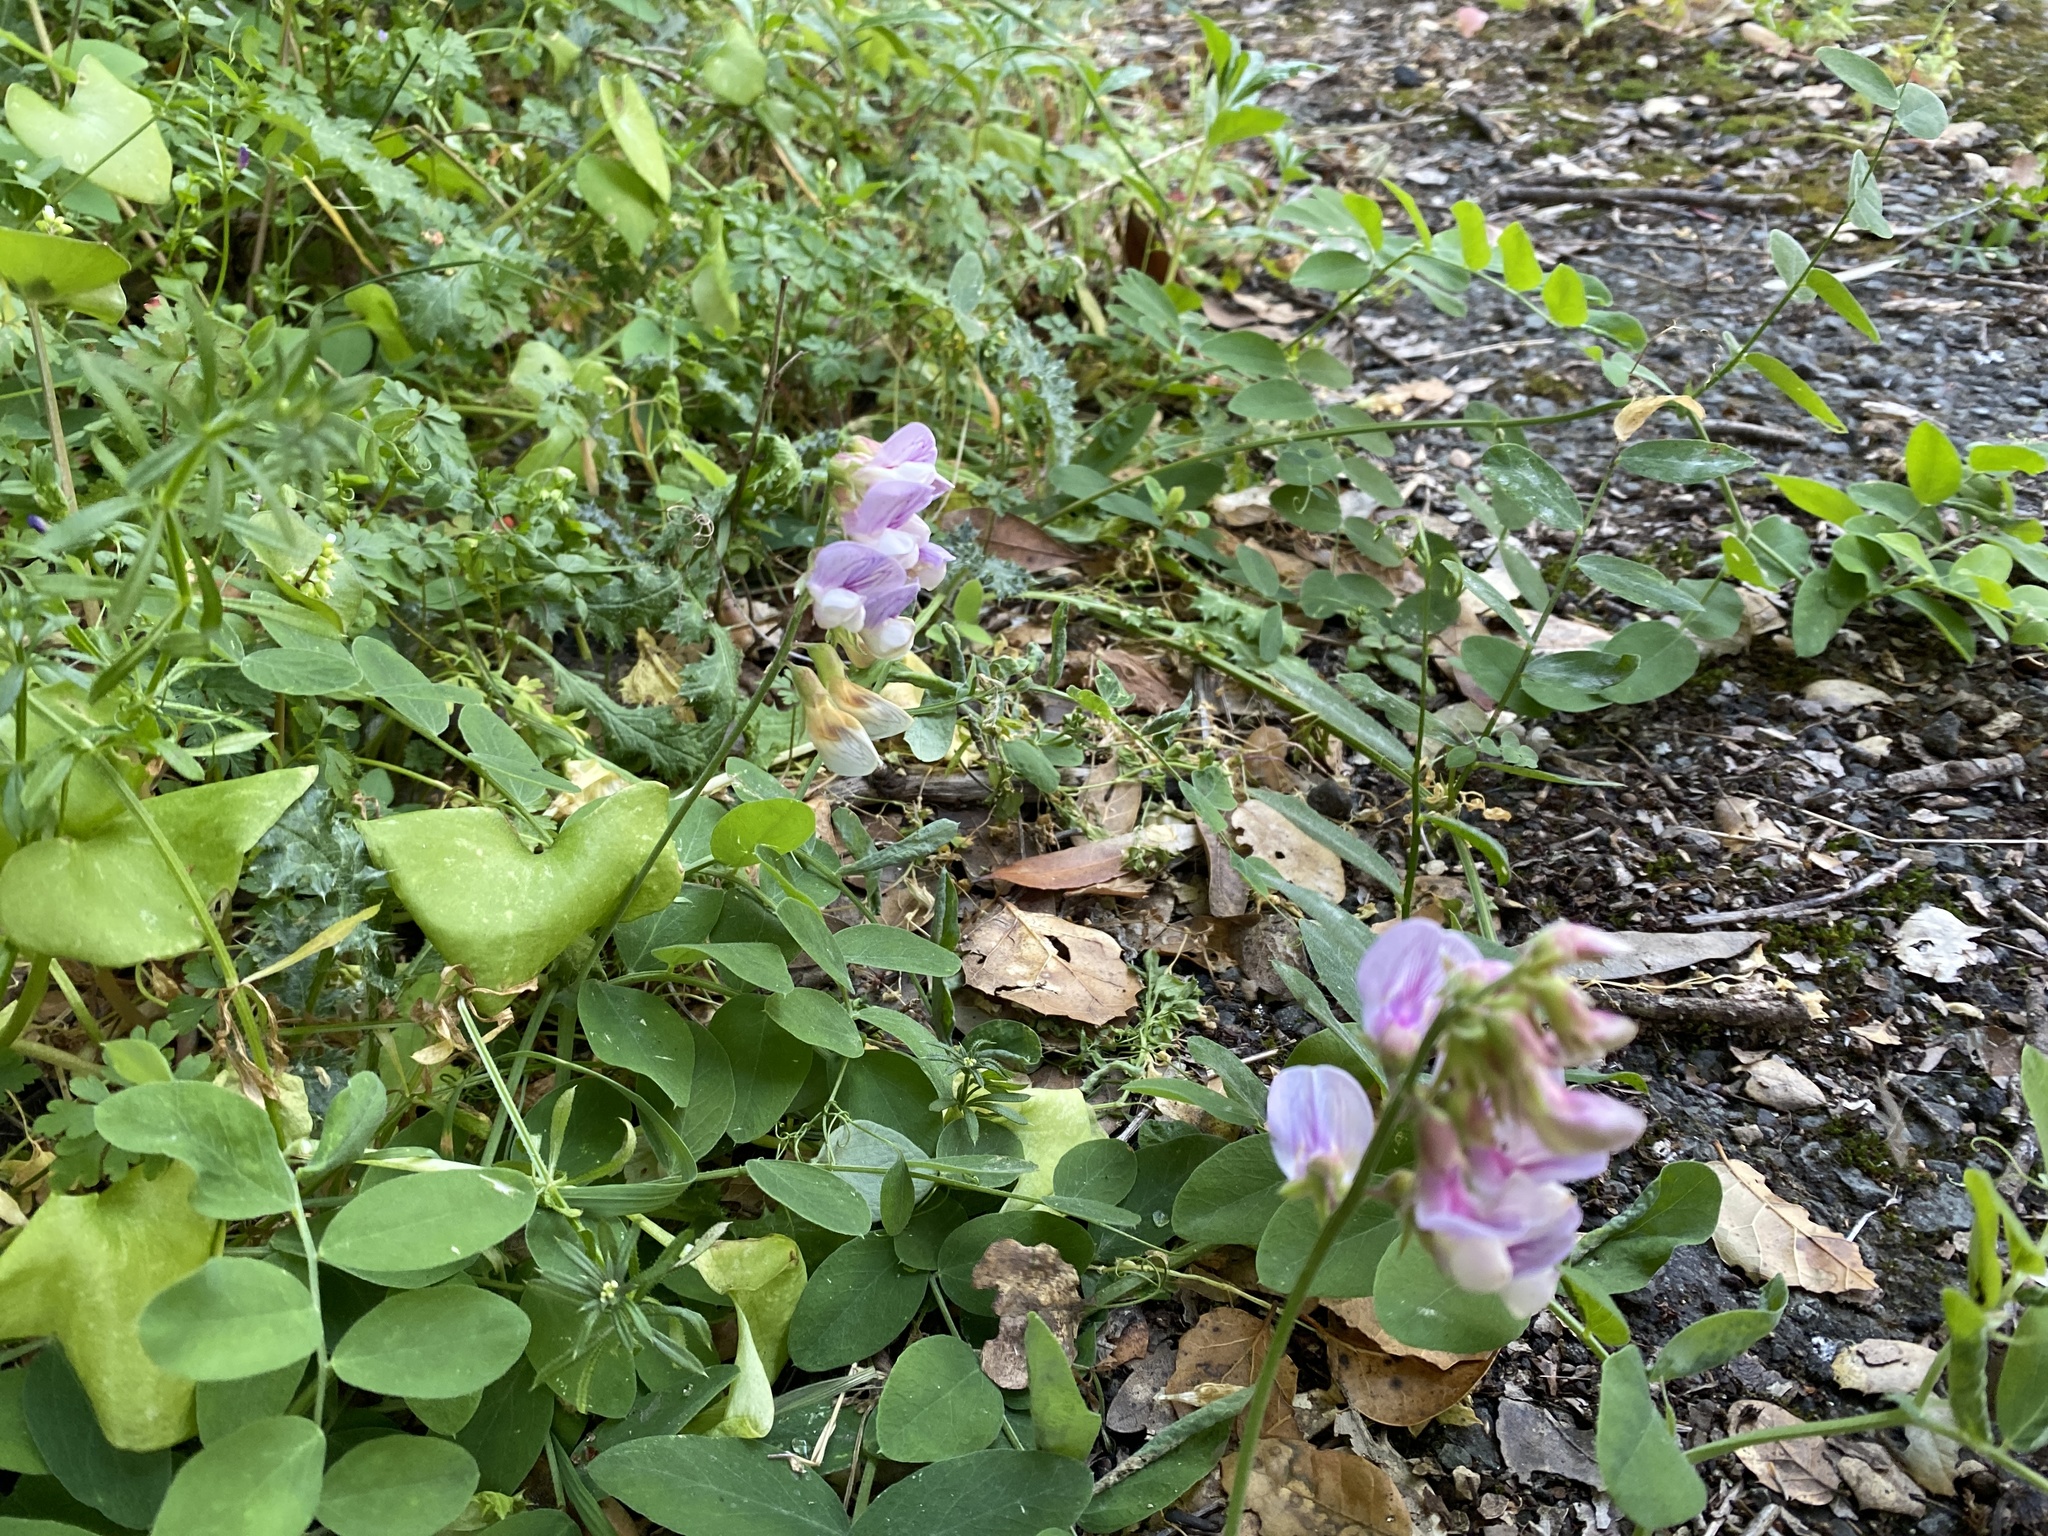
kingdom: Plantae
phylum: Tracheophyta
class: Magnoliopsida
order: Fabales
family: Fabaceae
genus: Lathyrus
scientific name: Lathyrus vestitus
